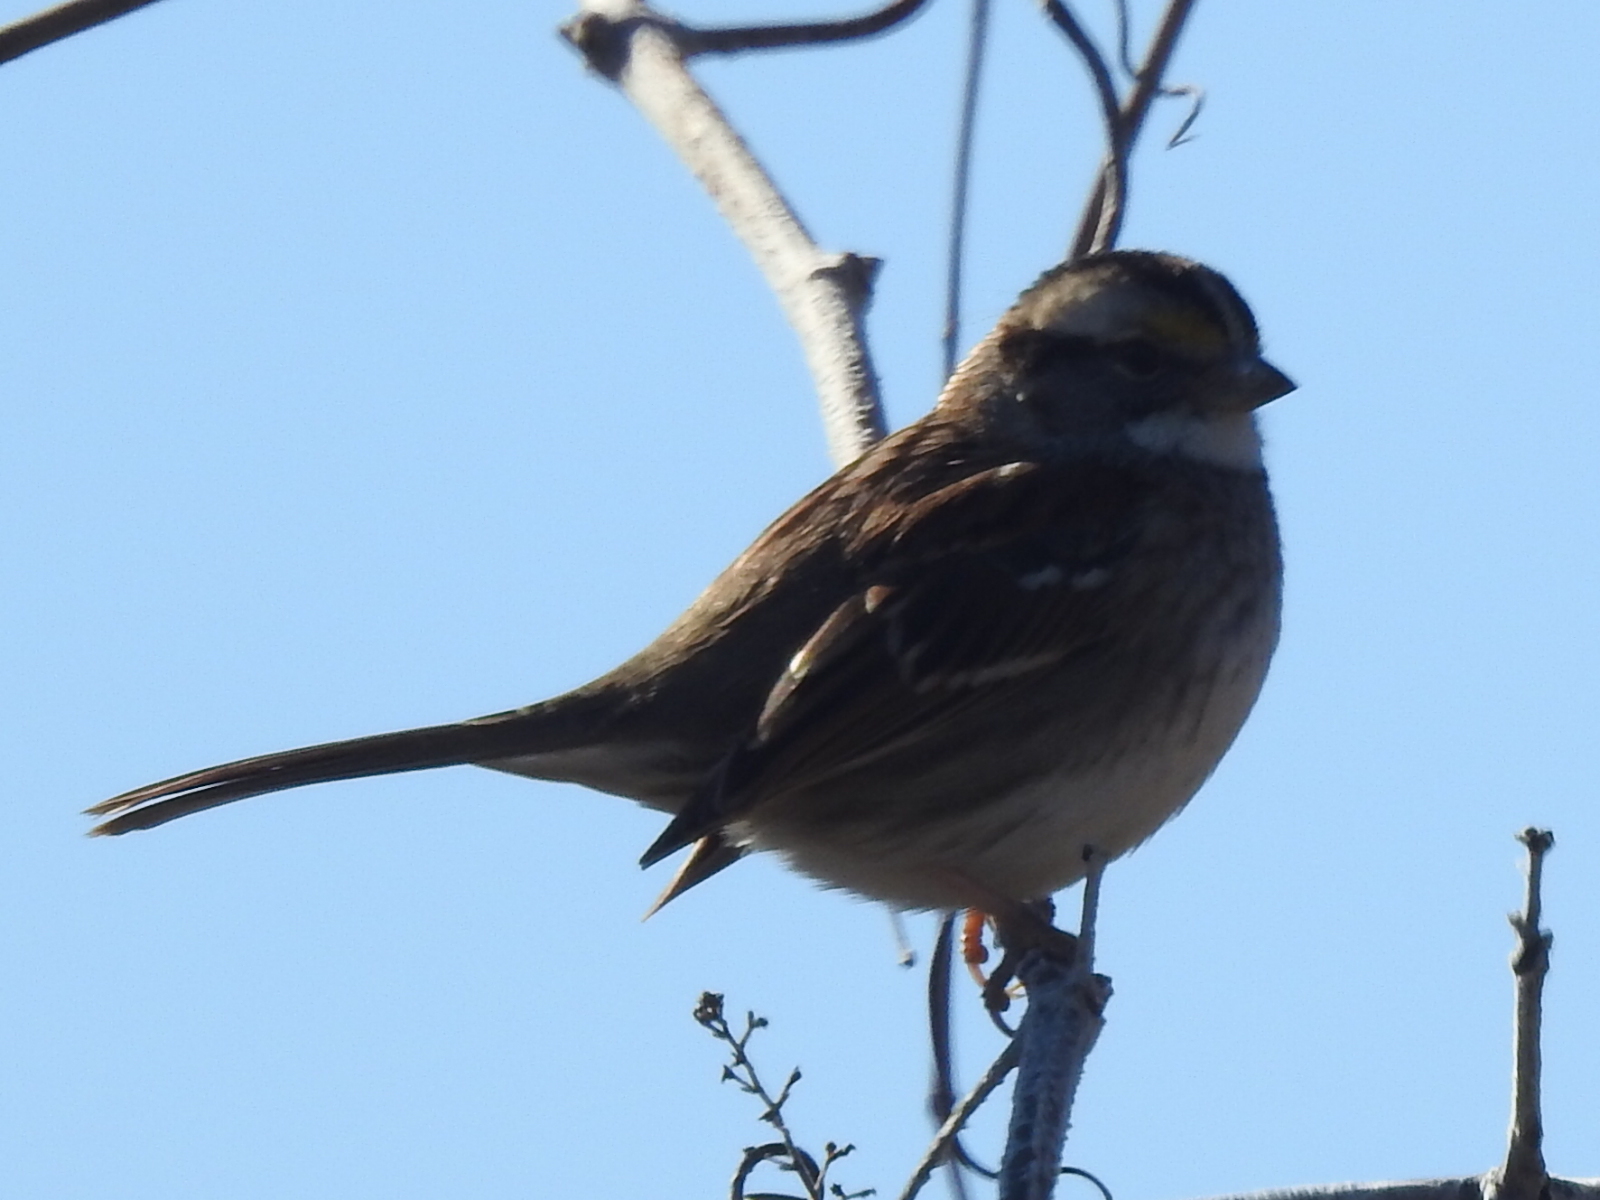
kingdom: Animalia
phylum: Chordata
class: Aves
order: Passeriformes
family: Passerellidae
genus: Zonotrichia
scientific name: Zonotrichia albicollis
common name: White-throated sparrow
